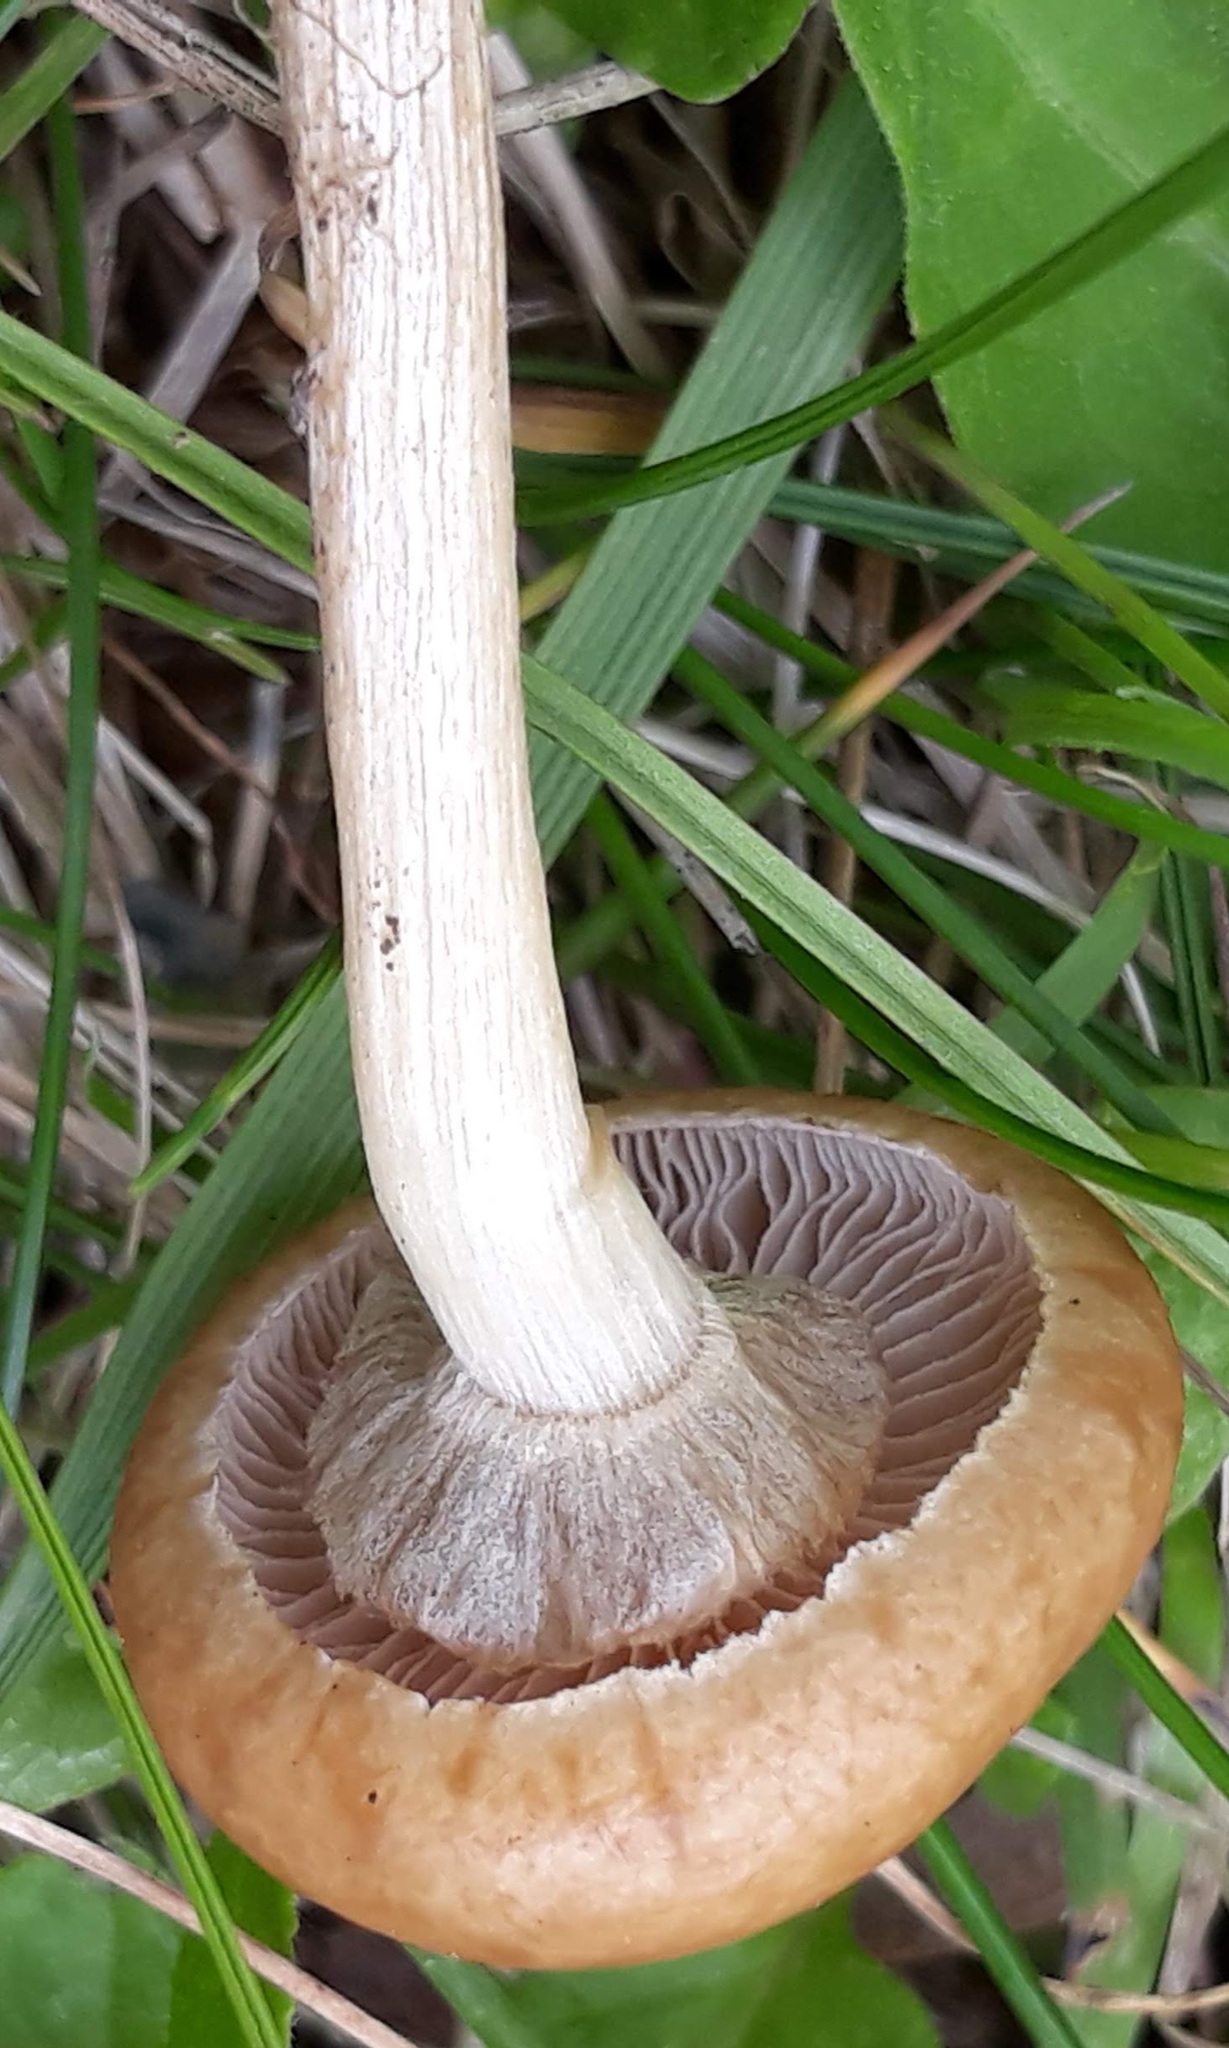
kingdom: Fungi
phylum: Basidiomycota
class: Agaricomycetes
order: Agaricales
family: Strophariaceae
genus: Agrocybe
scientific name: Agrocybe praecox
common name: Spring fieldcap
